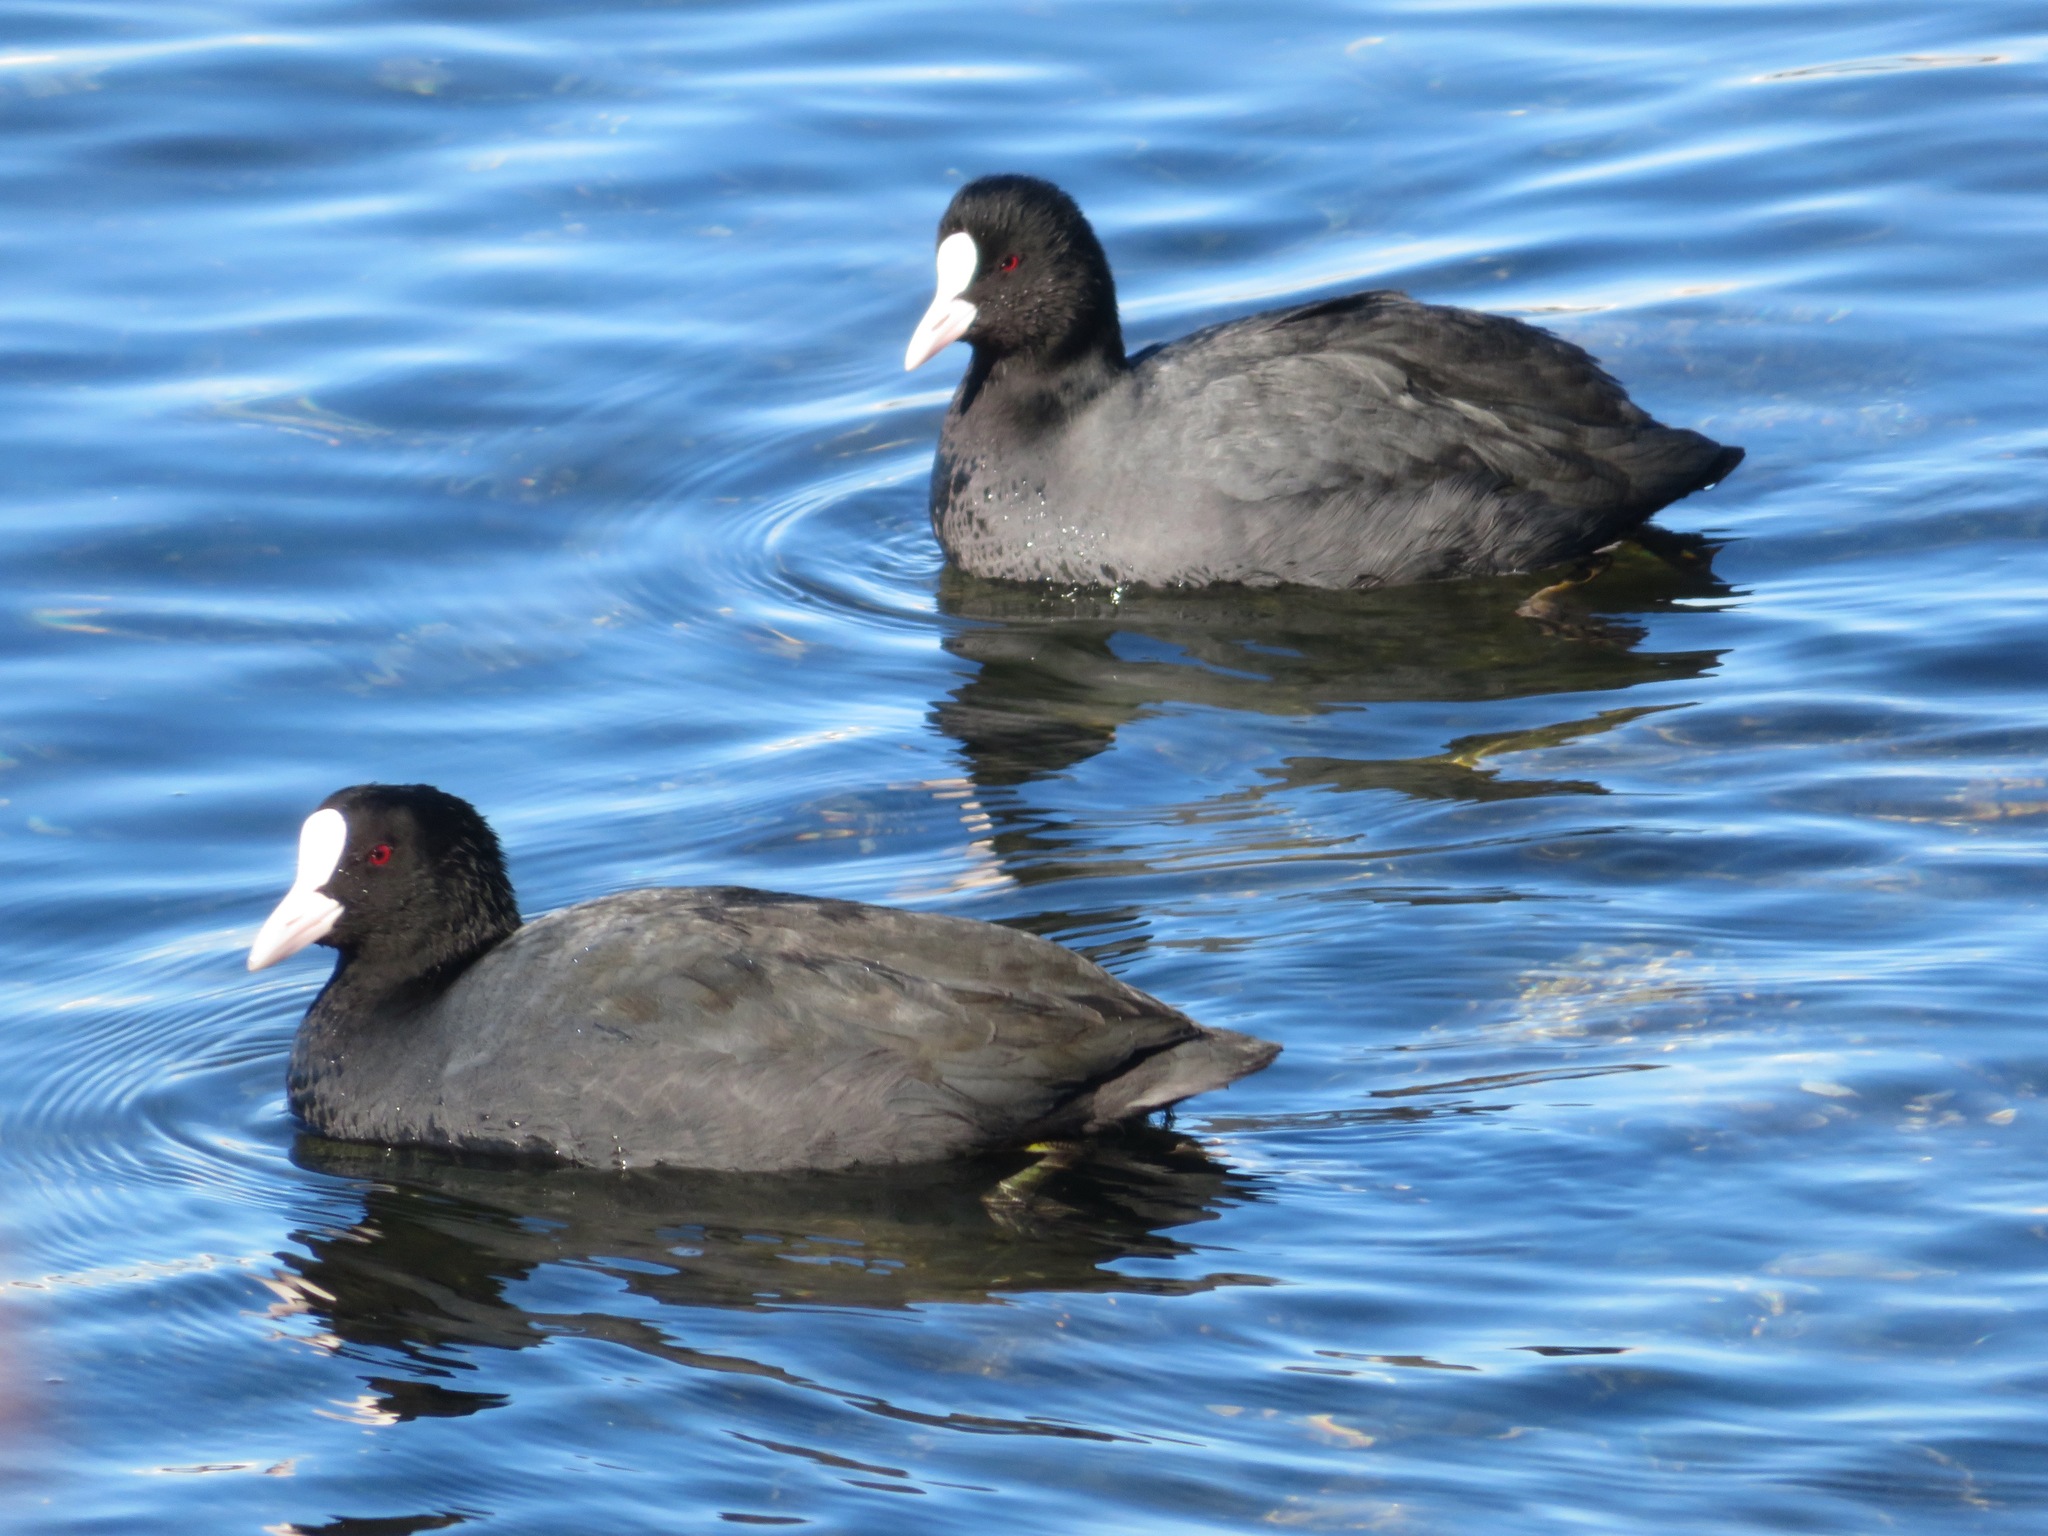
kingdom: Animalia
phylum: Chordata
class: Aves
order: Gruiformes
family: Rallidae
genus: Fulica
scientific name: Fulica atra
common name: Eurasian coot
